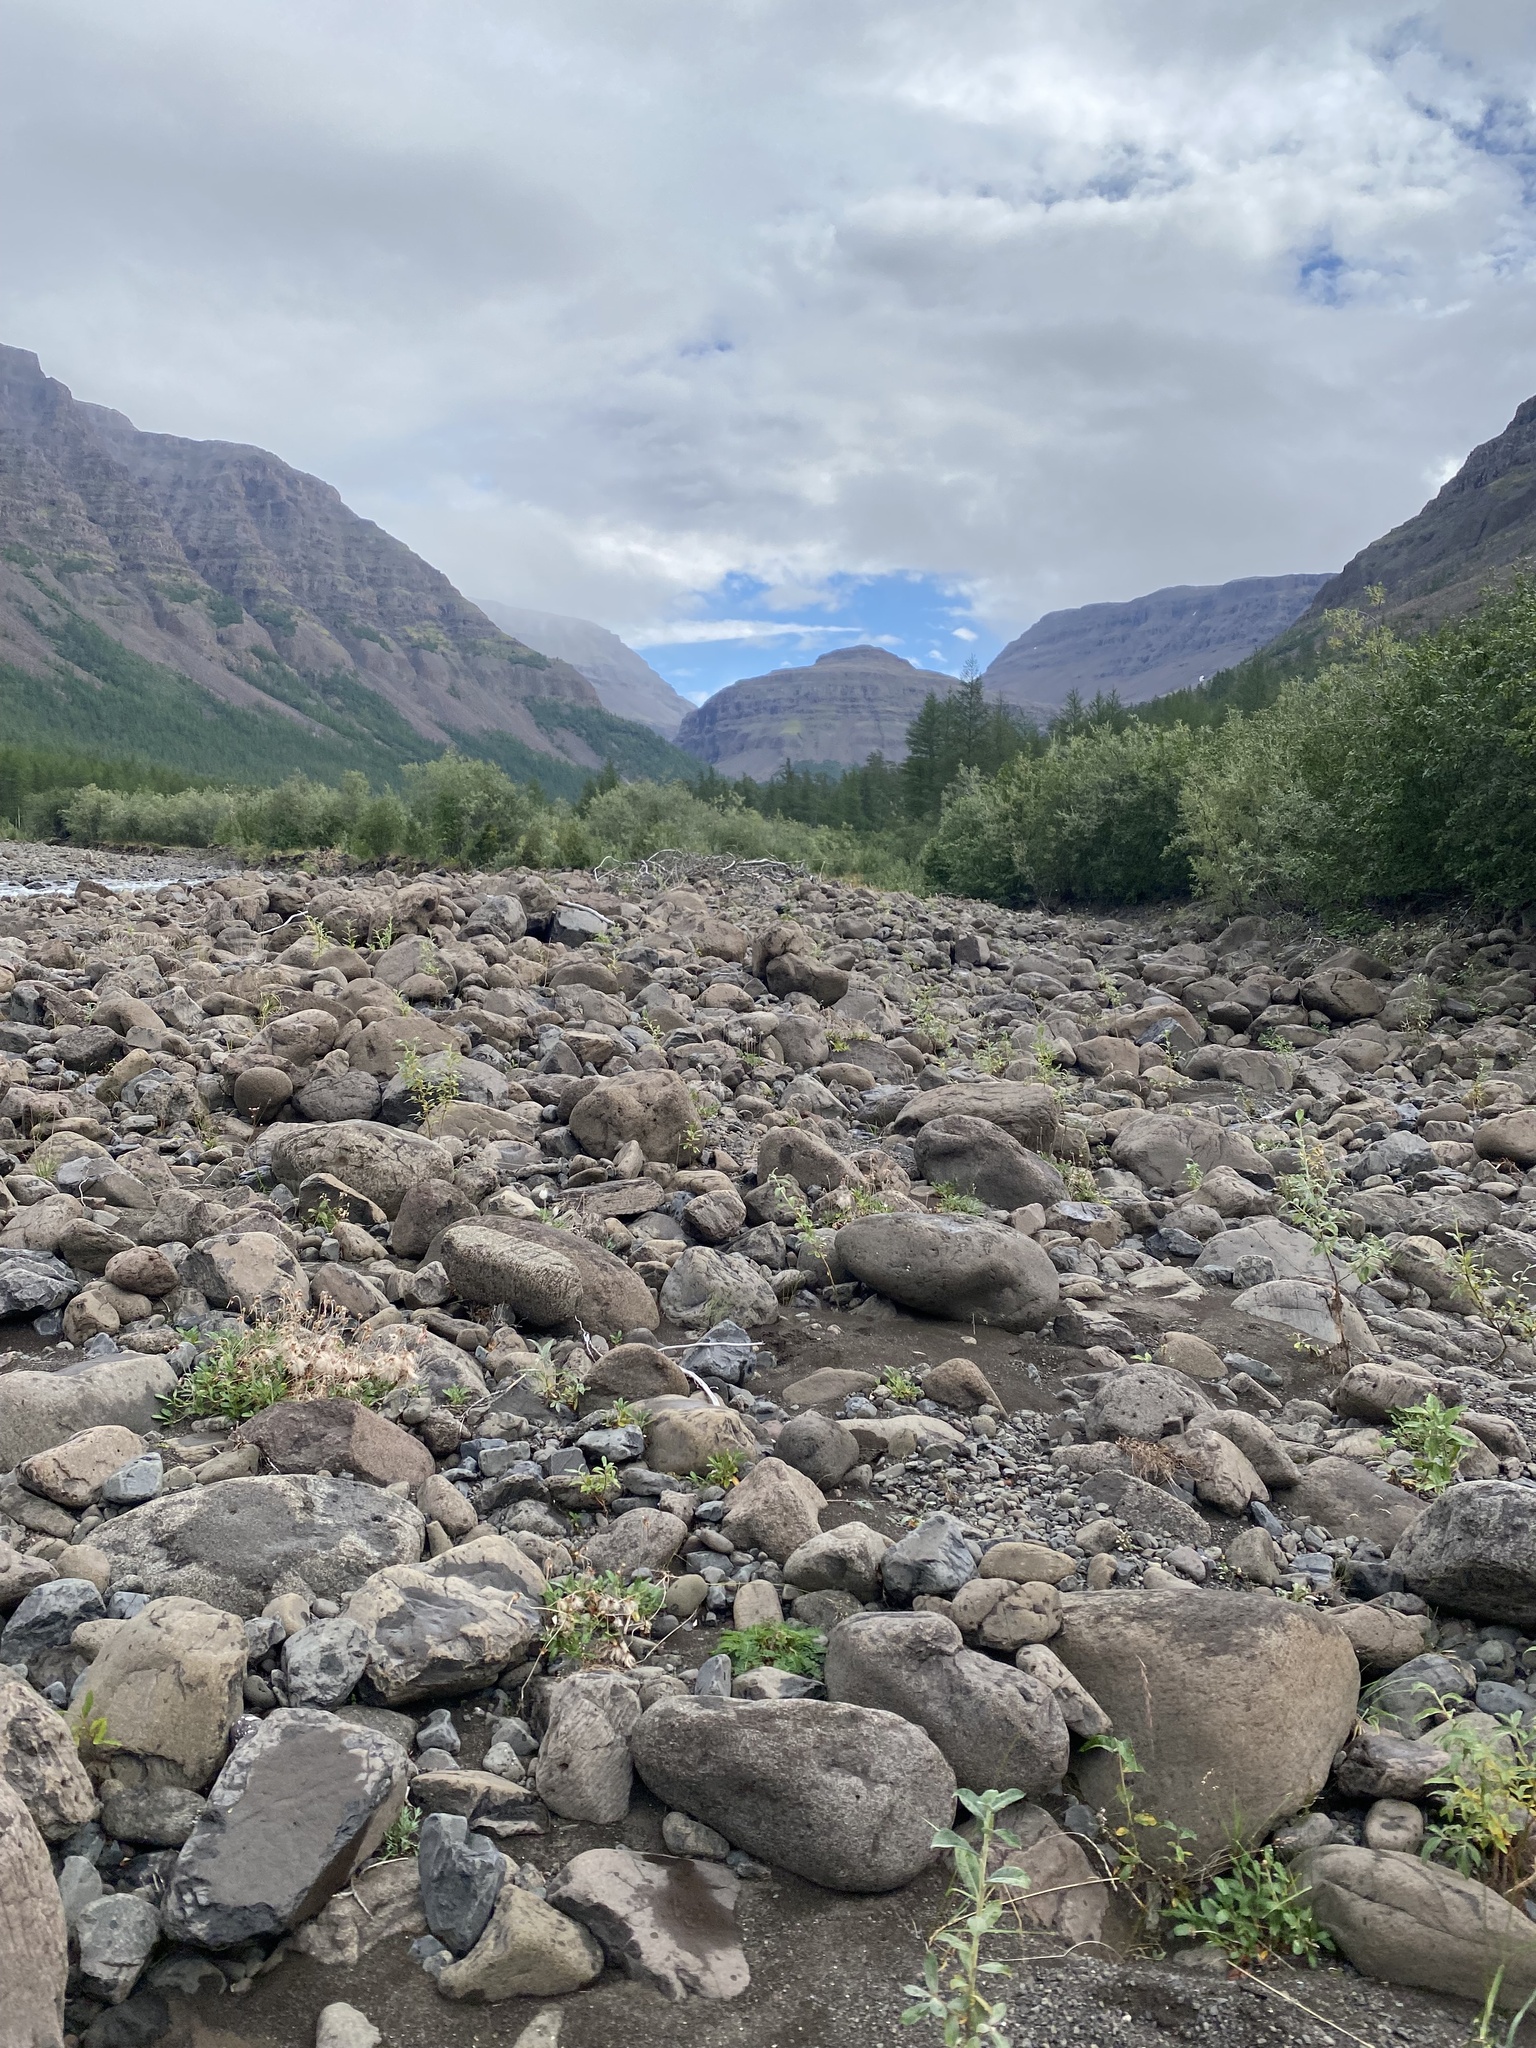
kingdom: Plantae
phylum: Tracheophyta
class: Magnoliopsida
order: Rosales
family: Rosaceae
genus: Dryas
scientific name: Dryas grandis
